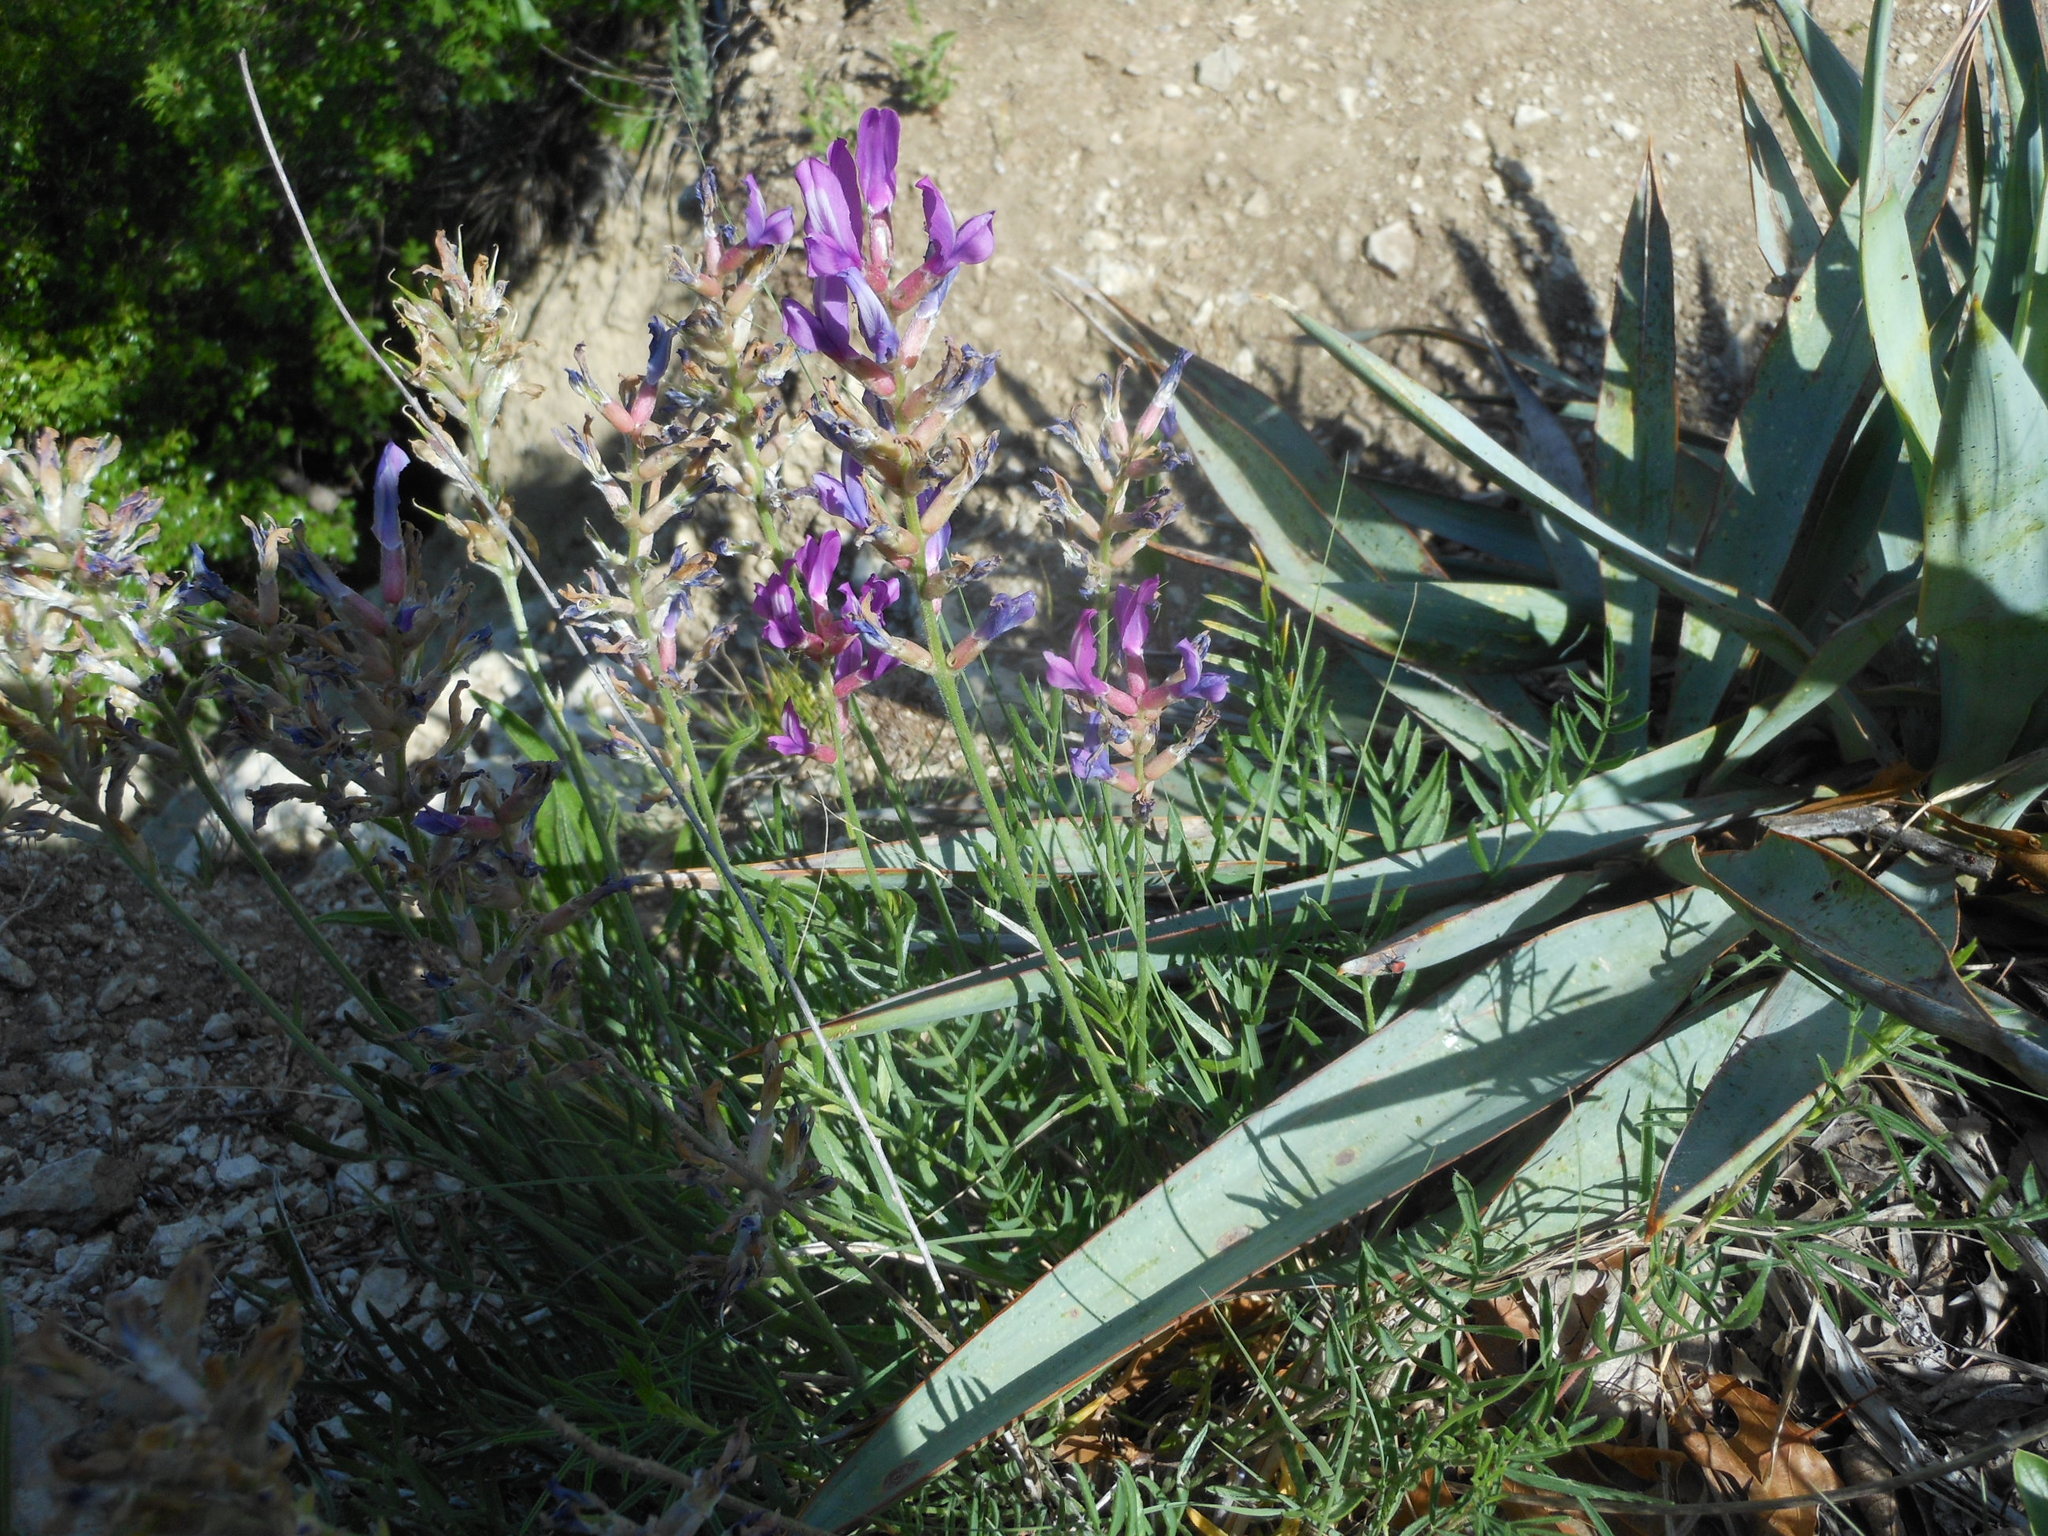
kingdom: Plantae
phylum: Tracheophyta
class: Magnoliopsida
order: Fabales
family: Fabaceae
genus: Oxytropis
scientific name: Oxytropis lambertii
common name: Purple locoweed
